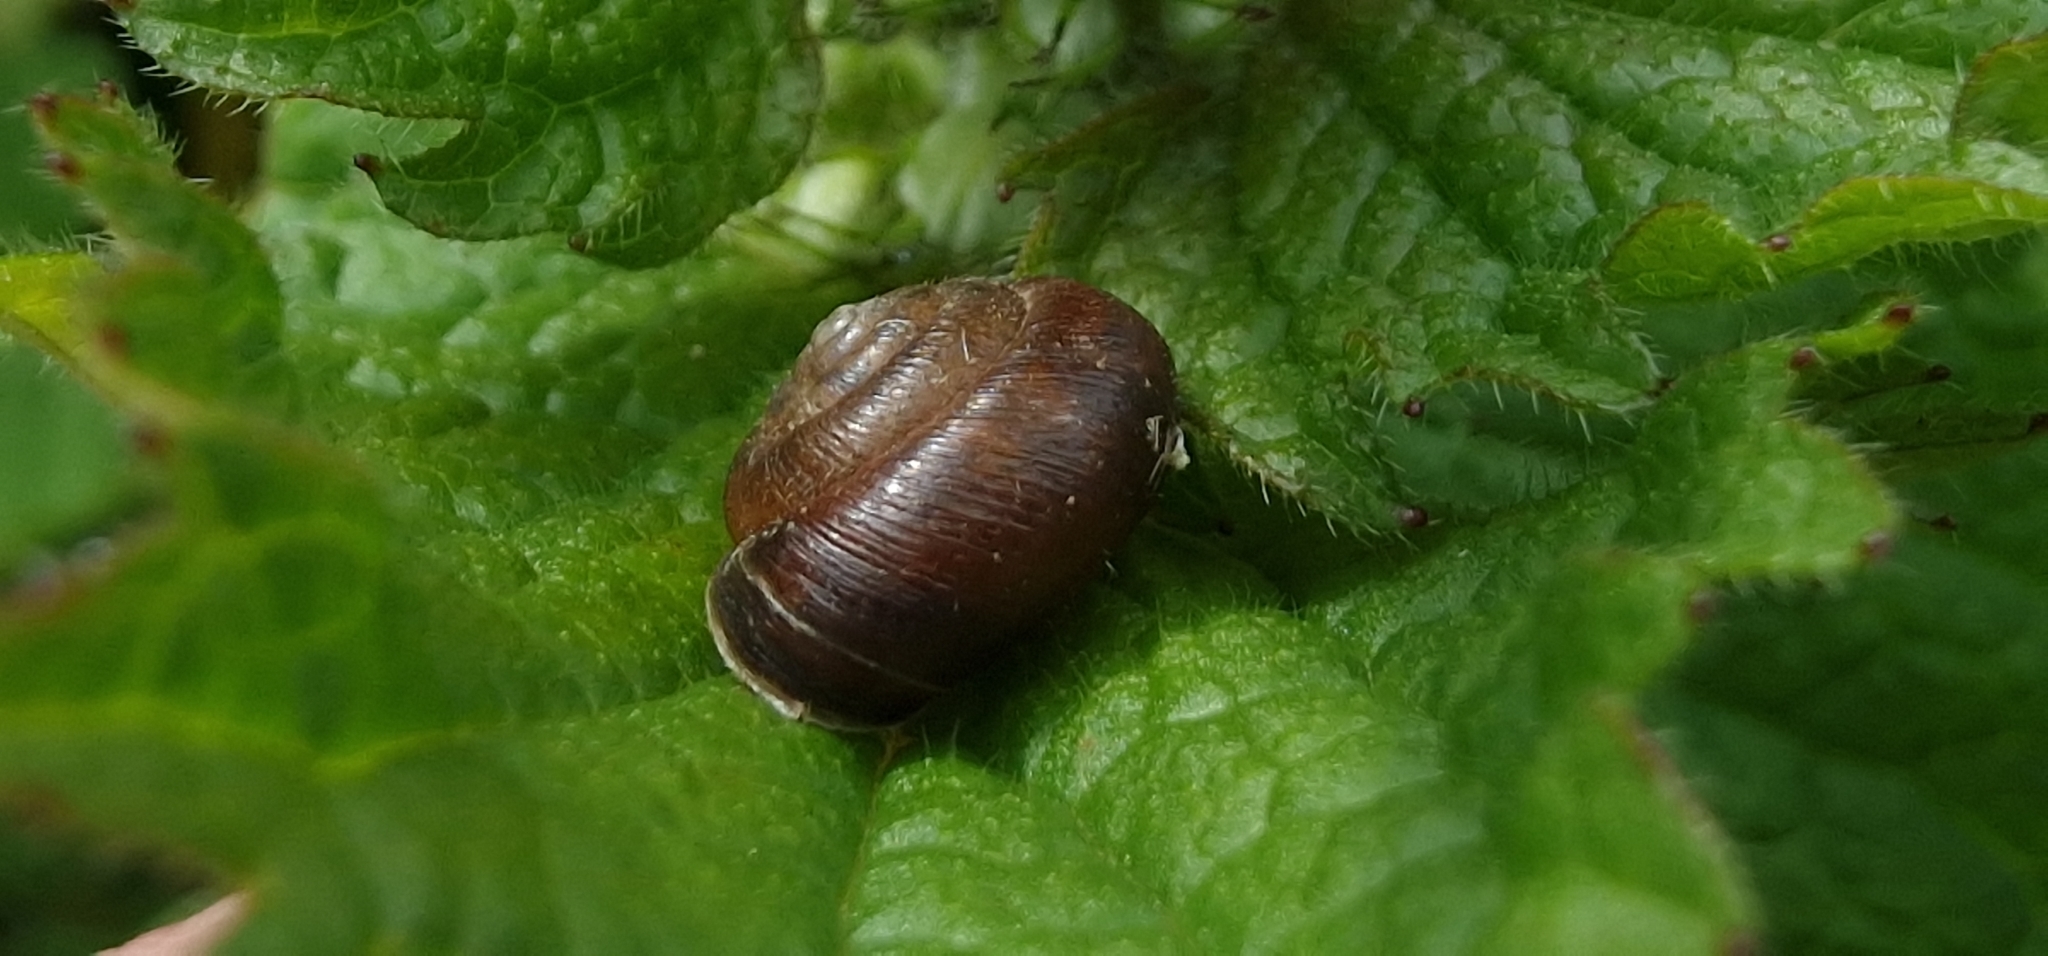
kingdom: Animalia
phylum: Mollusca
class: Gastropoda
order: Stylommatophora
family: Hygromiidae
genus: Trochulus
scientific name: Trochulus striolatus
